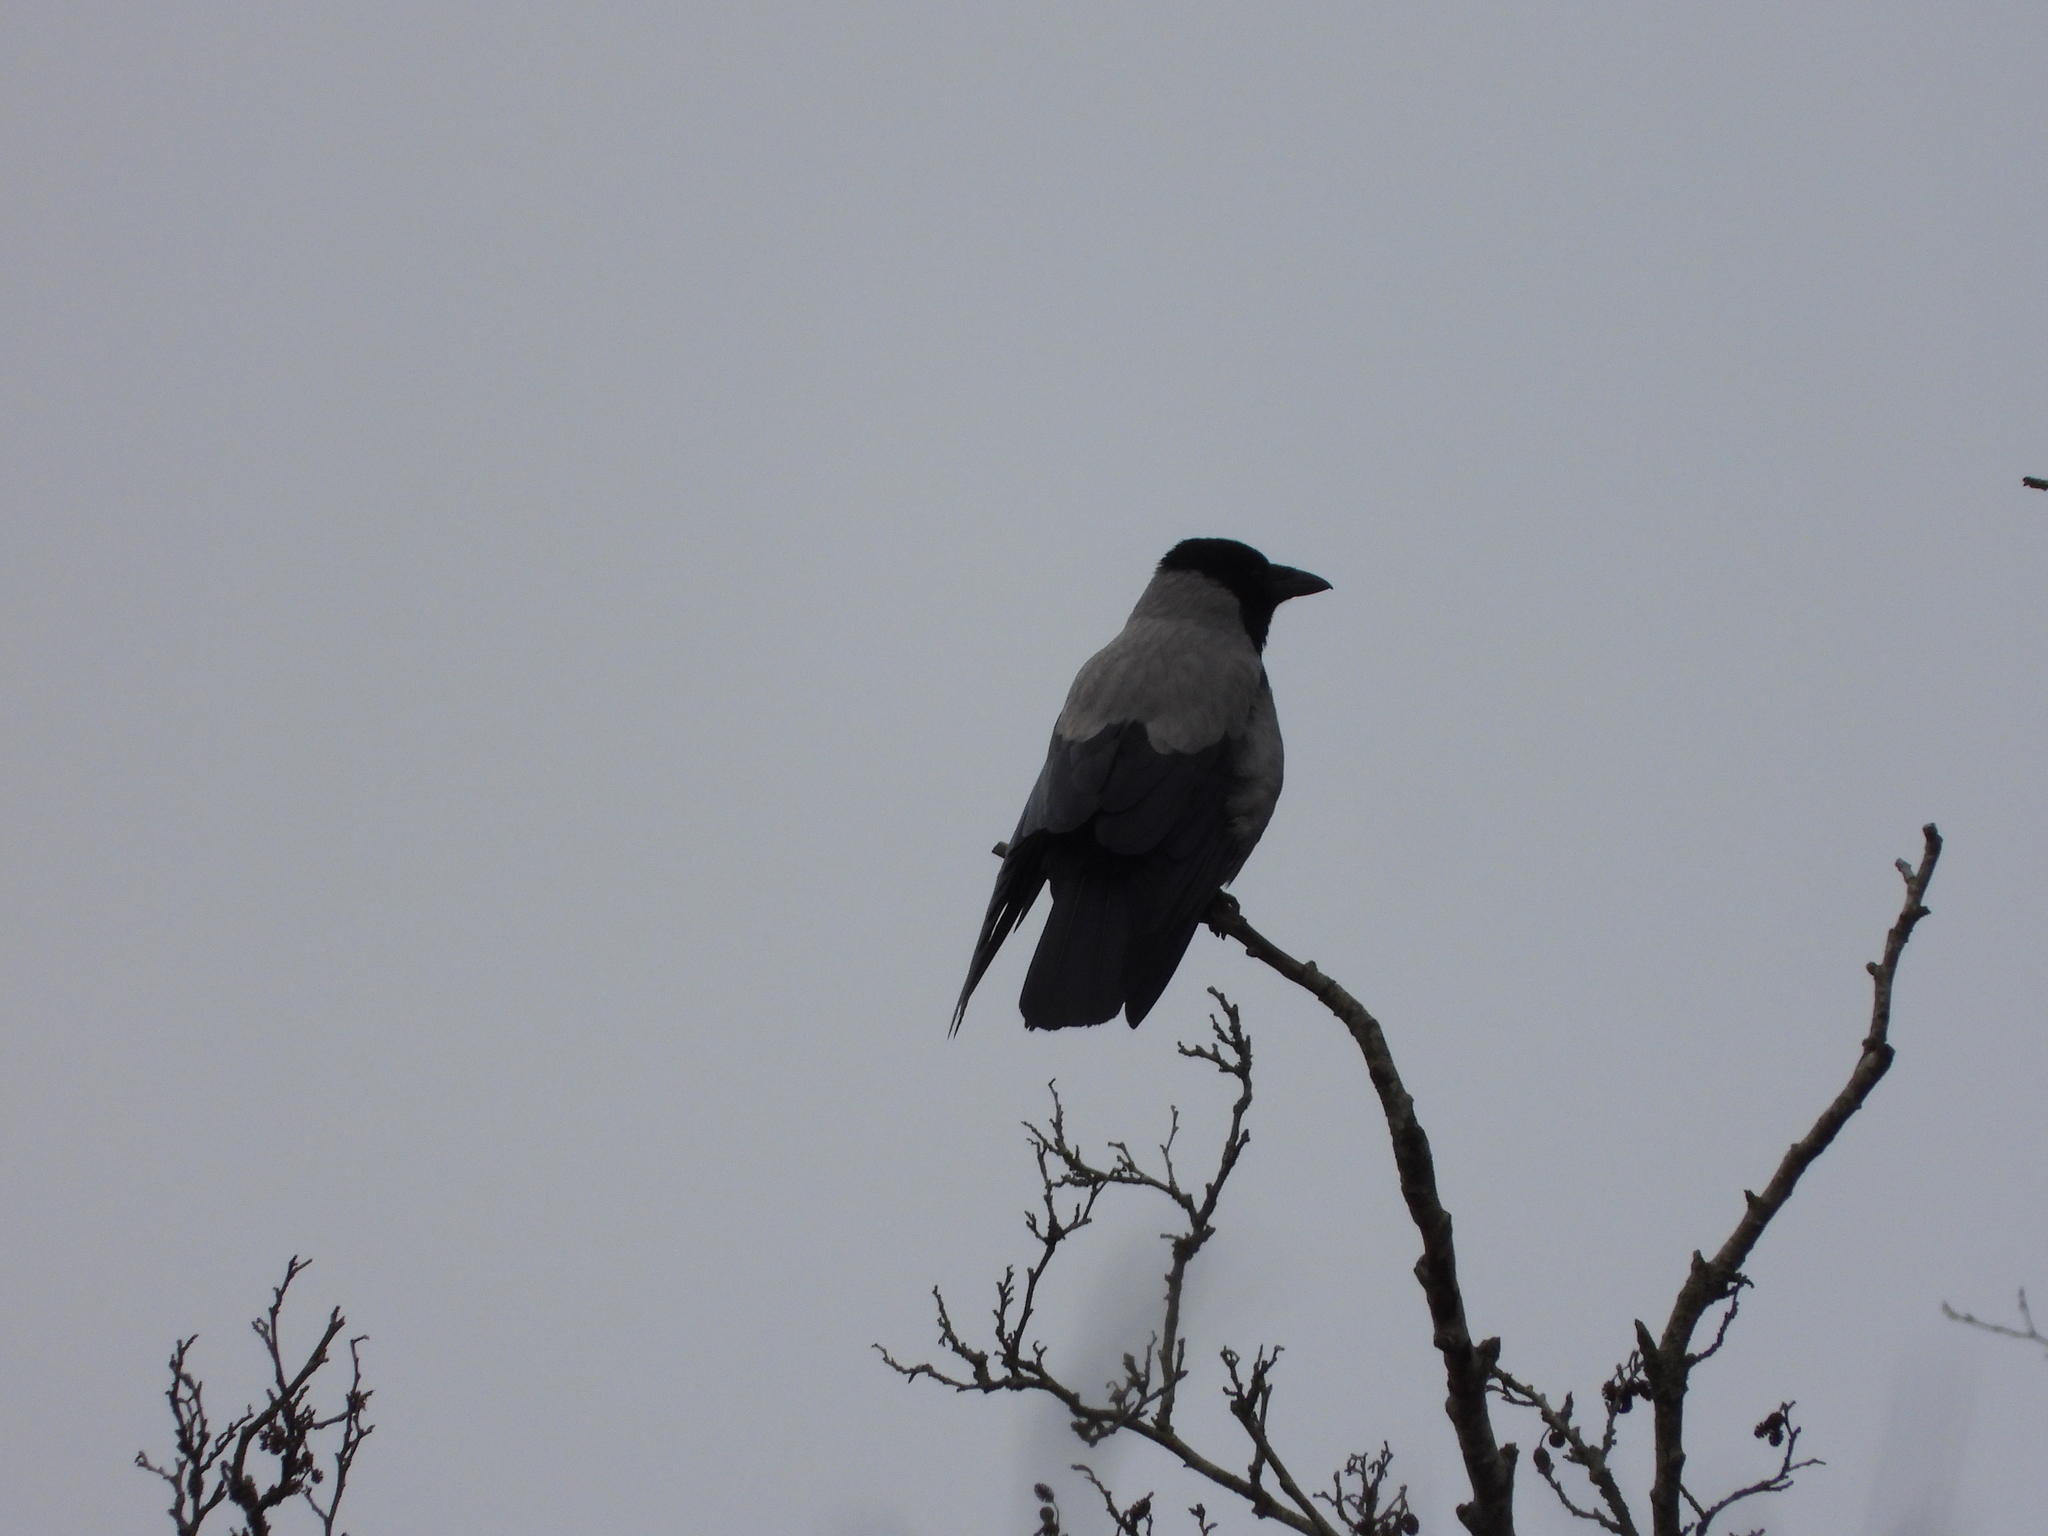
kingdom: Animalia
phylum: Chordata
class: Aves
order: Passeriformes
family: Corvidae
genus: Corvus
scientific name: Corvus cornix
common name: Hooded crow
